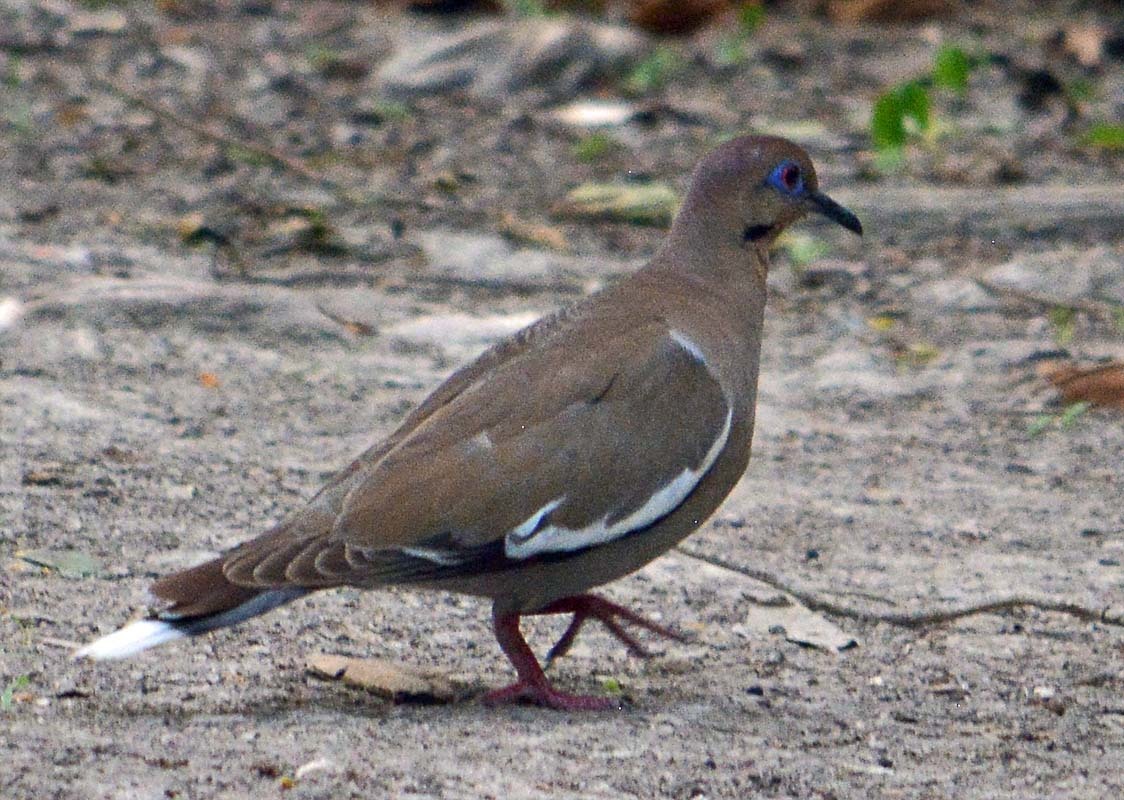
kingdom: Animalia
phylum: Chordata
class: Aves
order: Columbiformes
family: Columbidae
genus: Zenaida
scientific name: Zenaida asiatica
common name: White-winged dove
